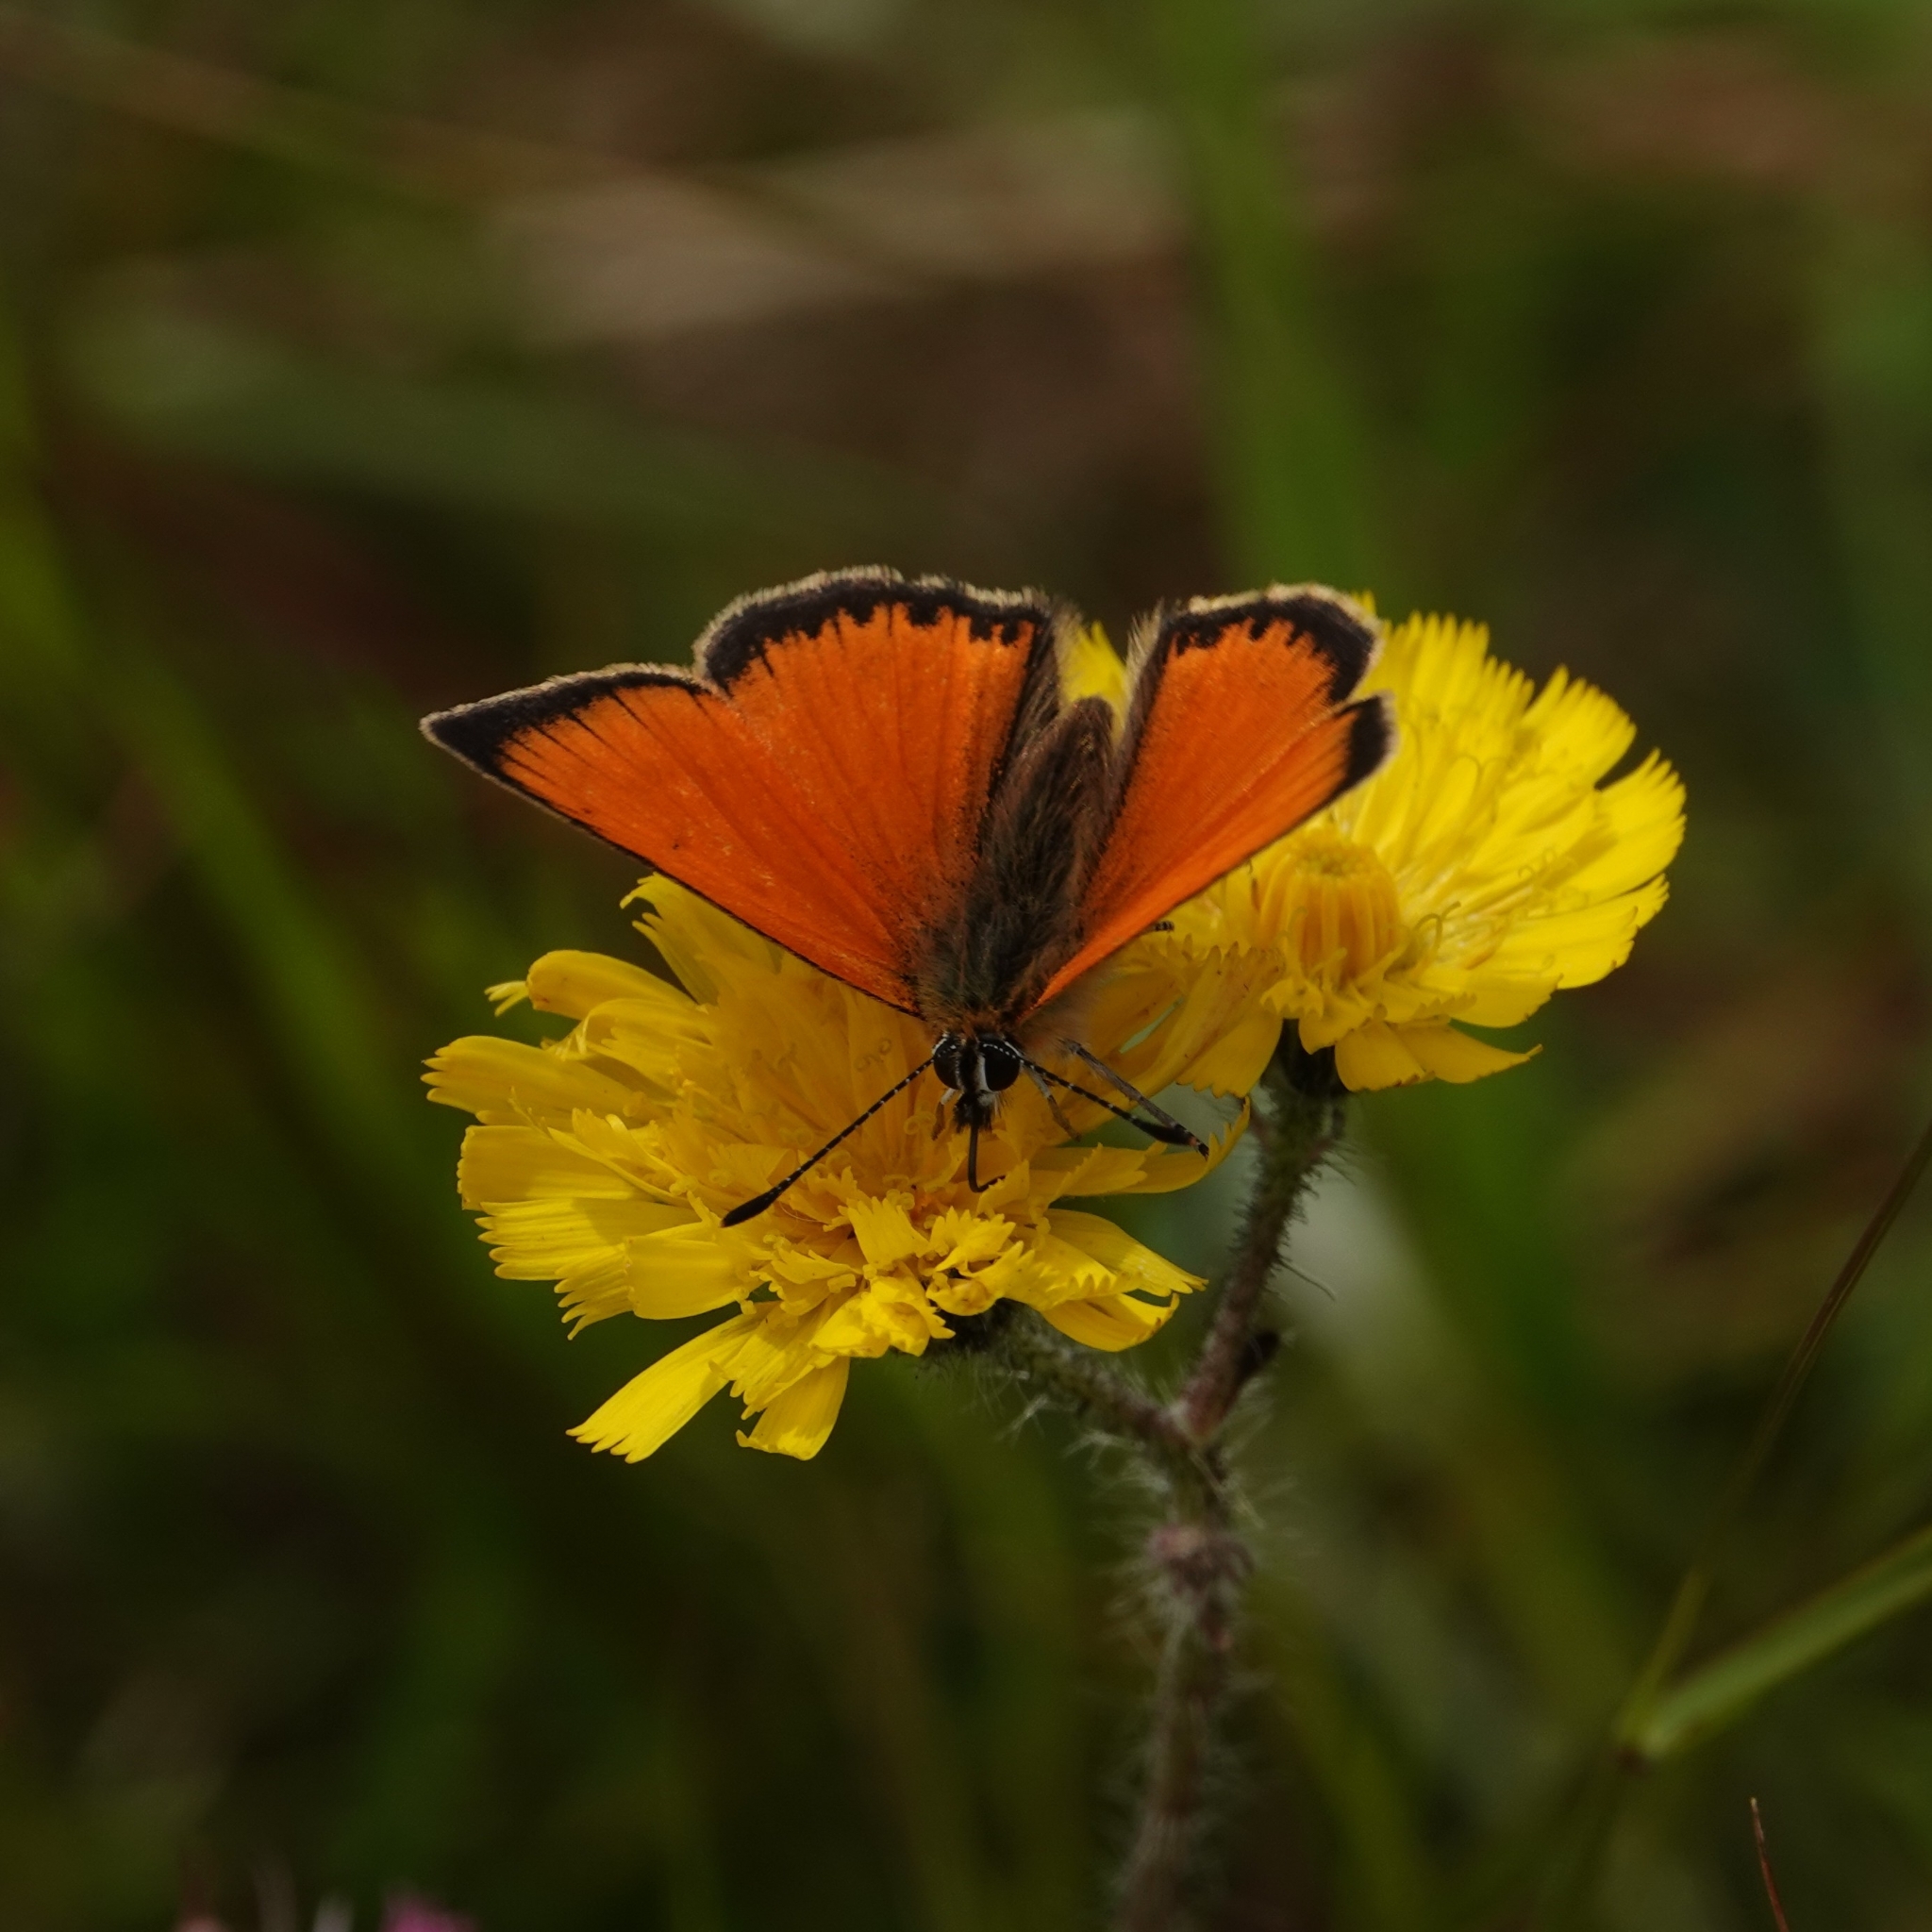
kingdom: Animalia
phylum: Arthropoda
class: Insecta
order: Lepidoptera
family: Lycaenidae
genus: Lycaena
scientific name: Lycaena virgaureae
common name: Scarce copper
